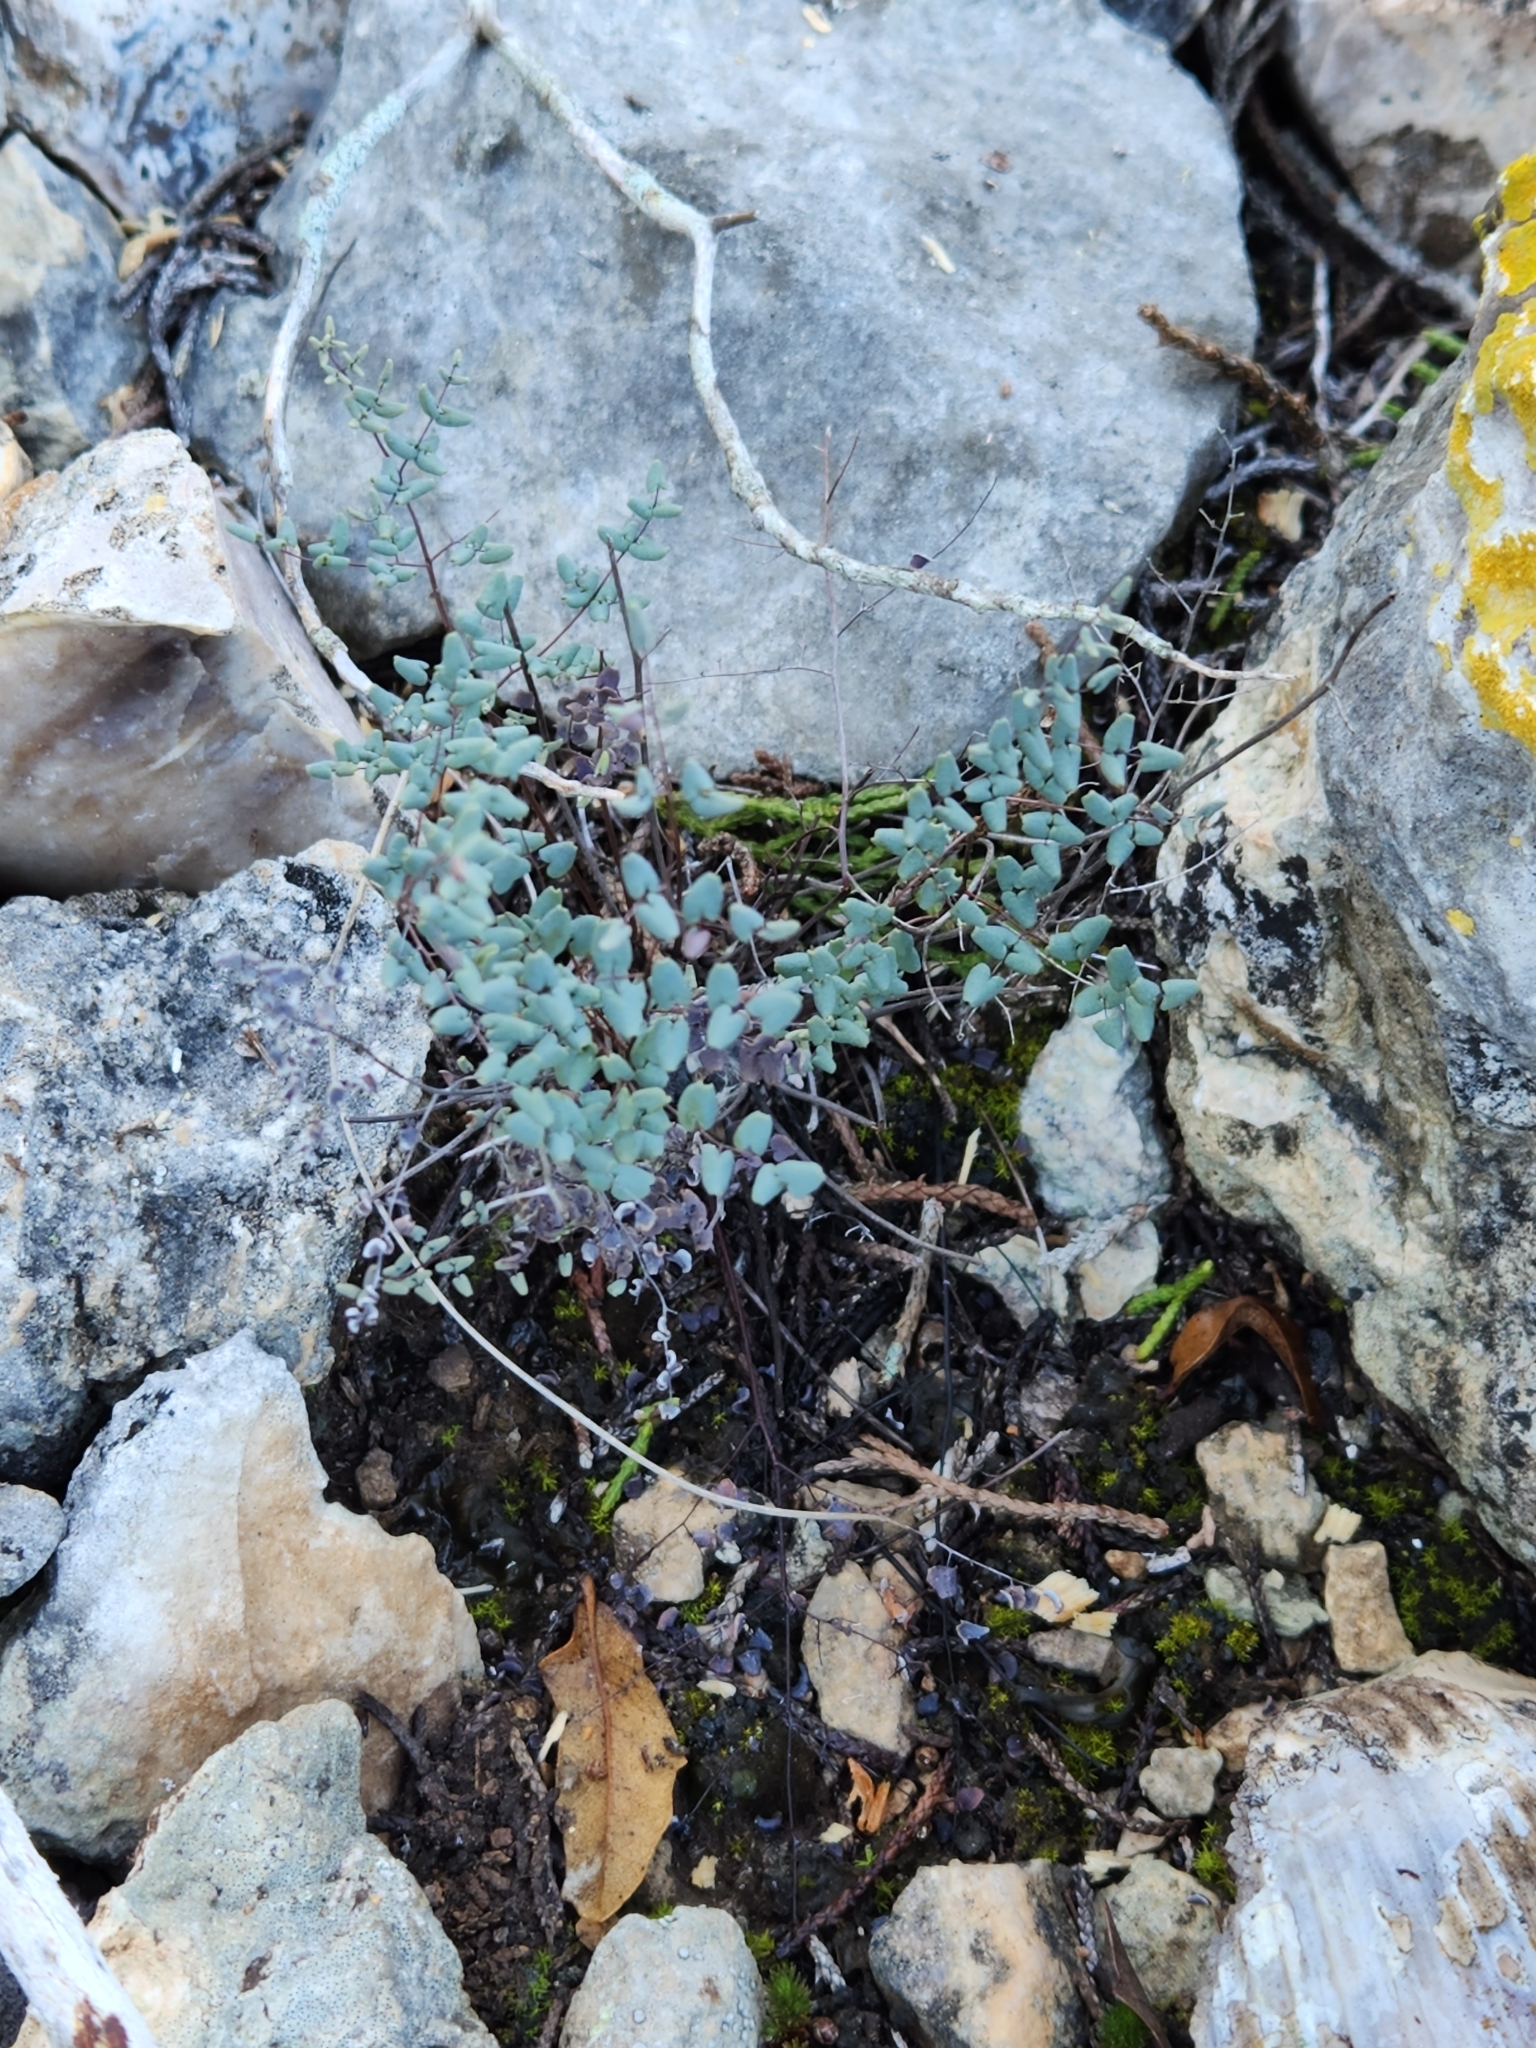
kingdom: Plantae
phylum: Tracheophyta
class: Polypodiopsida
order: Polypodiales
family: Pteridaceae
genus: Argyrochosma
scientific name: Argyrochosma microphylla
